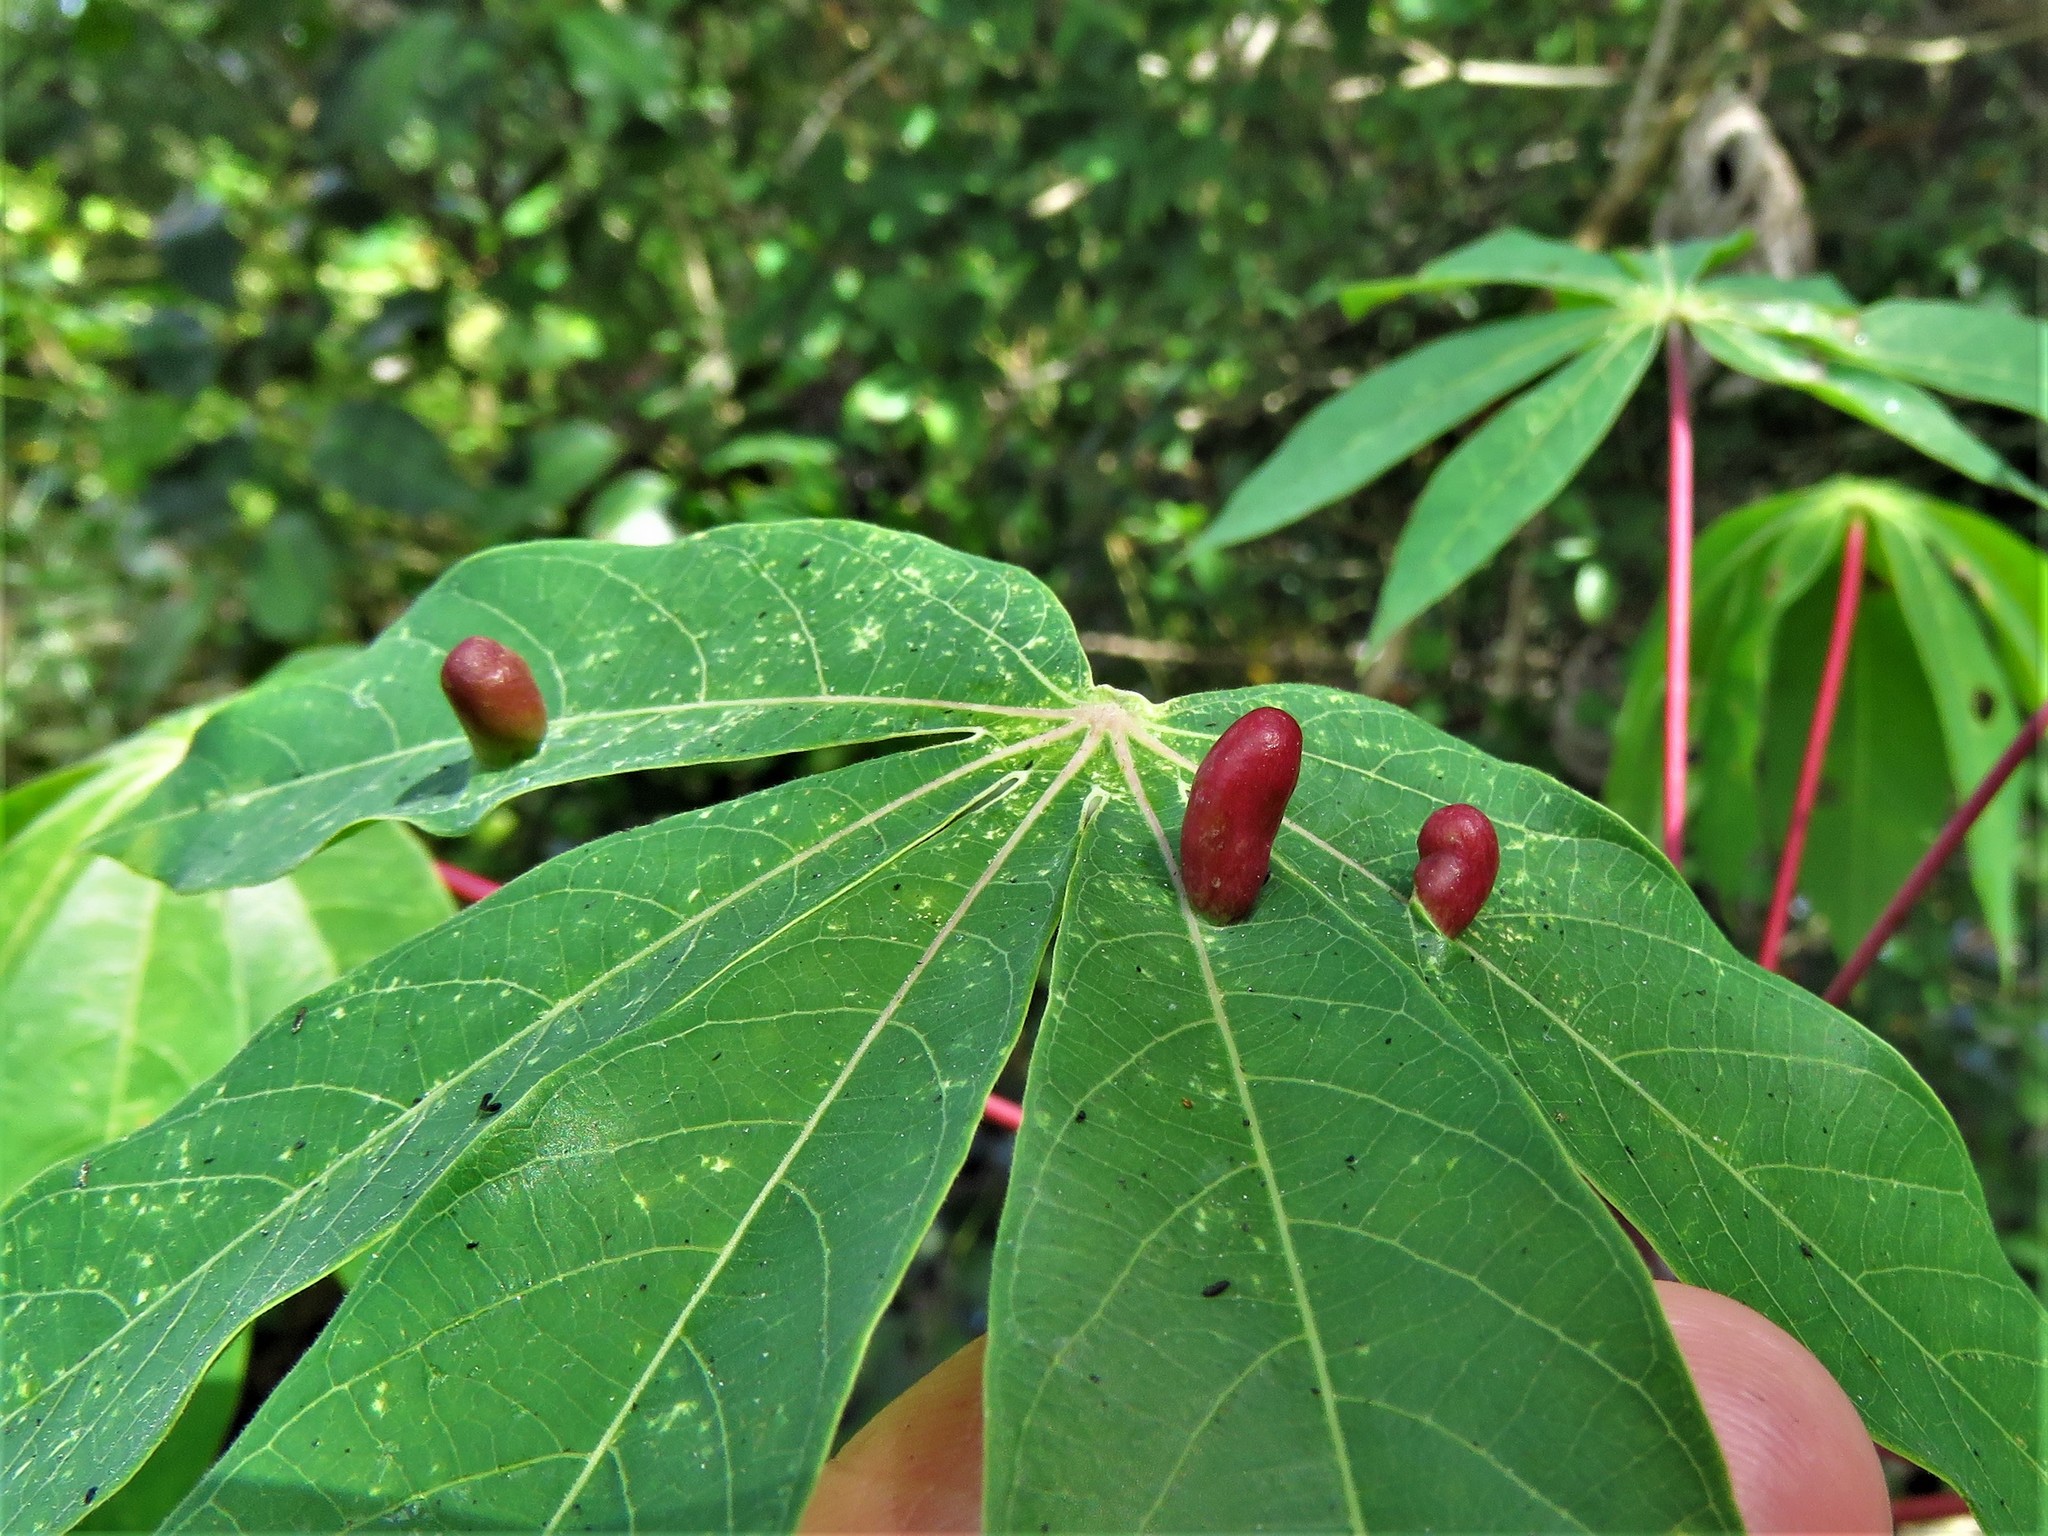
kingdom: Animalia
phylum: Arthropoda
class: Insecta
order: Diptera
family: Cecidomyiidae
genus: Iatrophobia
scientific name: Iatrophobia brasiliensis
